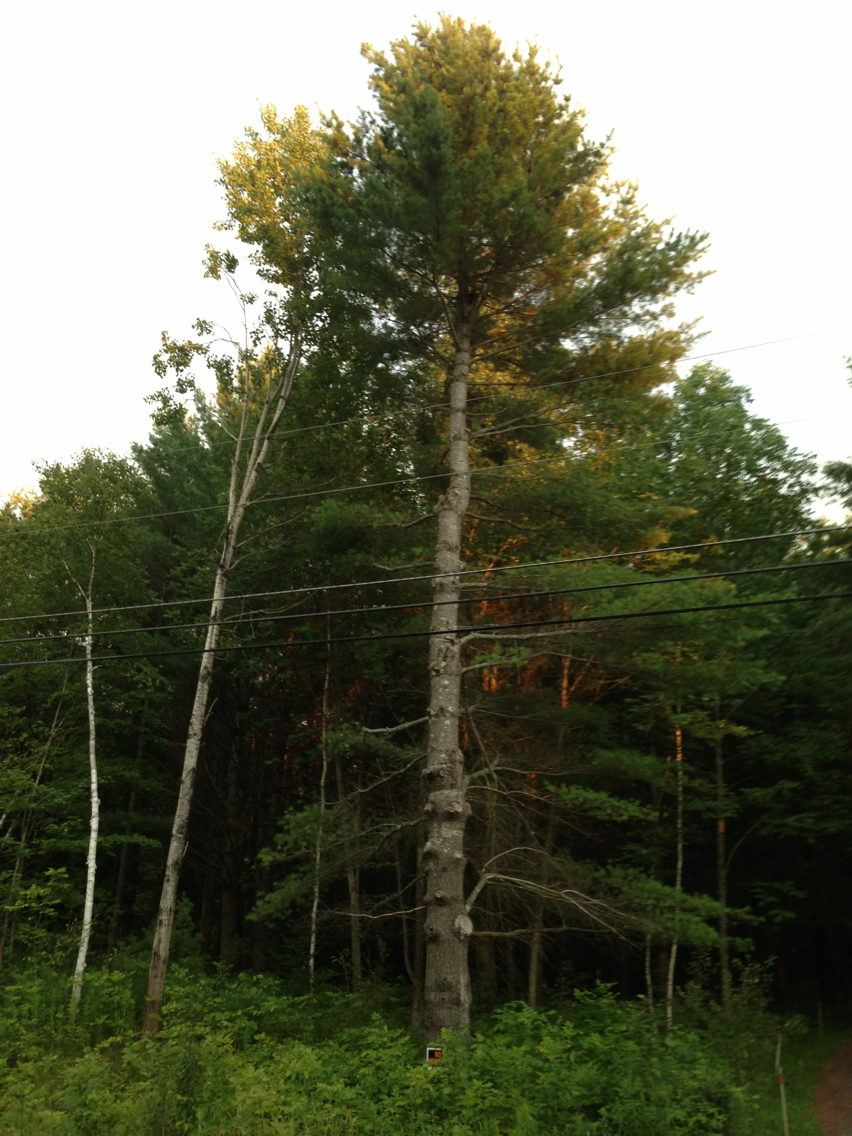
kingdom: Plantae
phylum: Tracheophyta
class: Pinopsida
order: Pinales
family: Pinaceae
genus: Pinus
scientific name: Pinus strobus
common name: Weymouth pine
